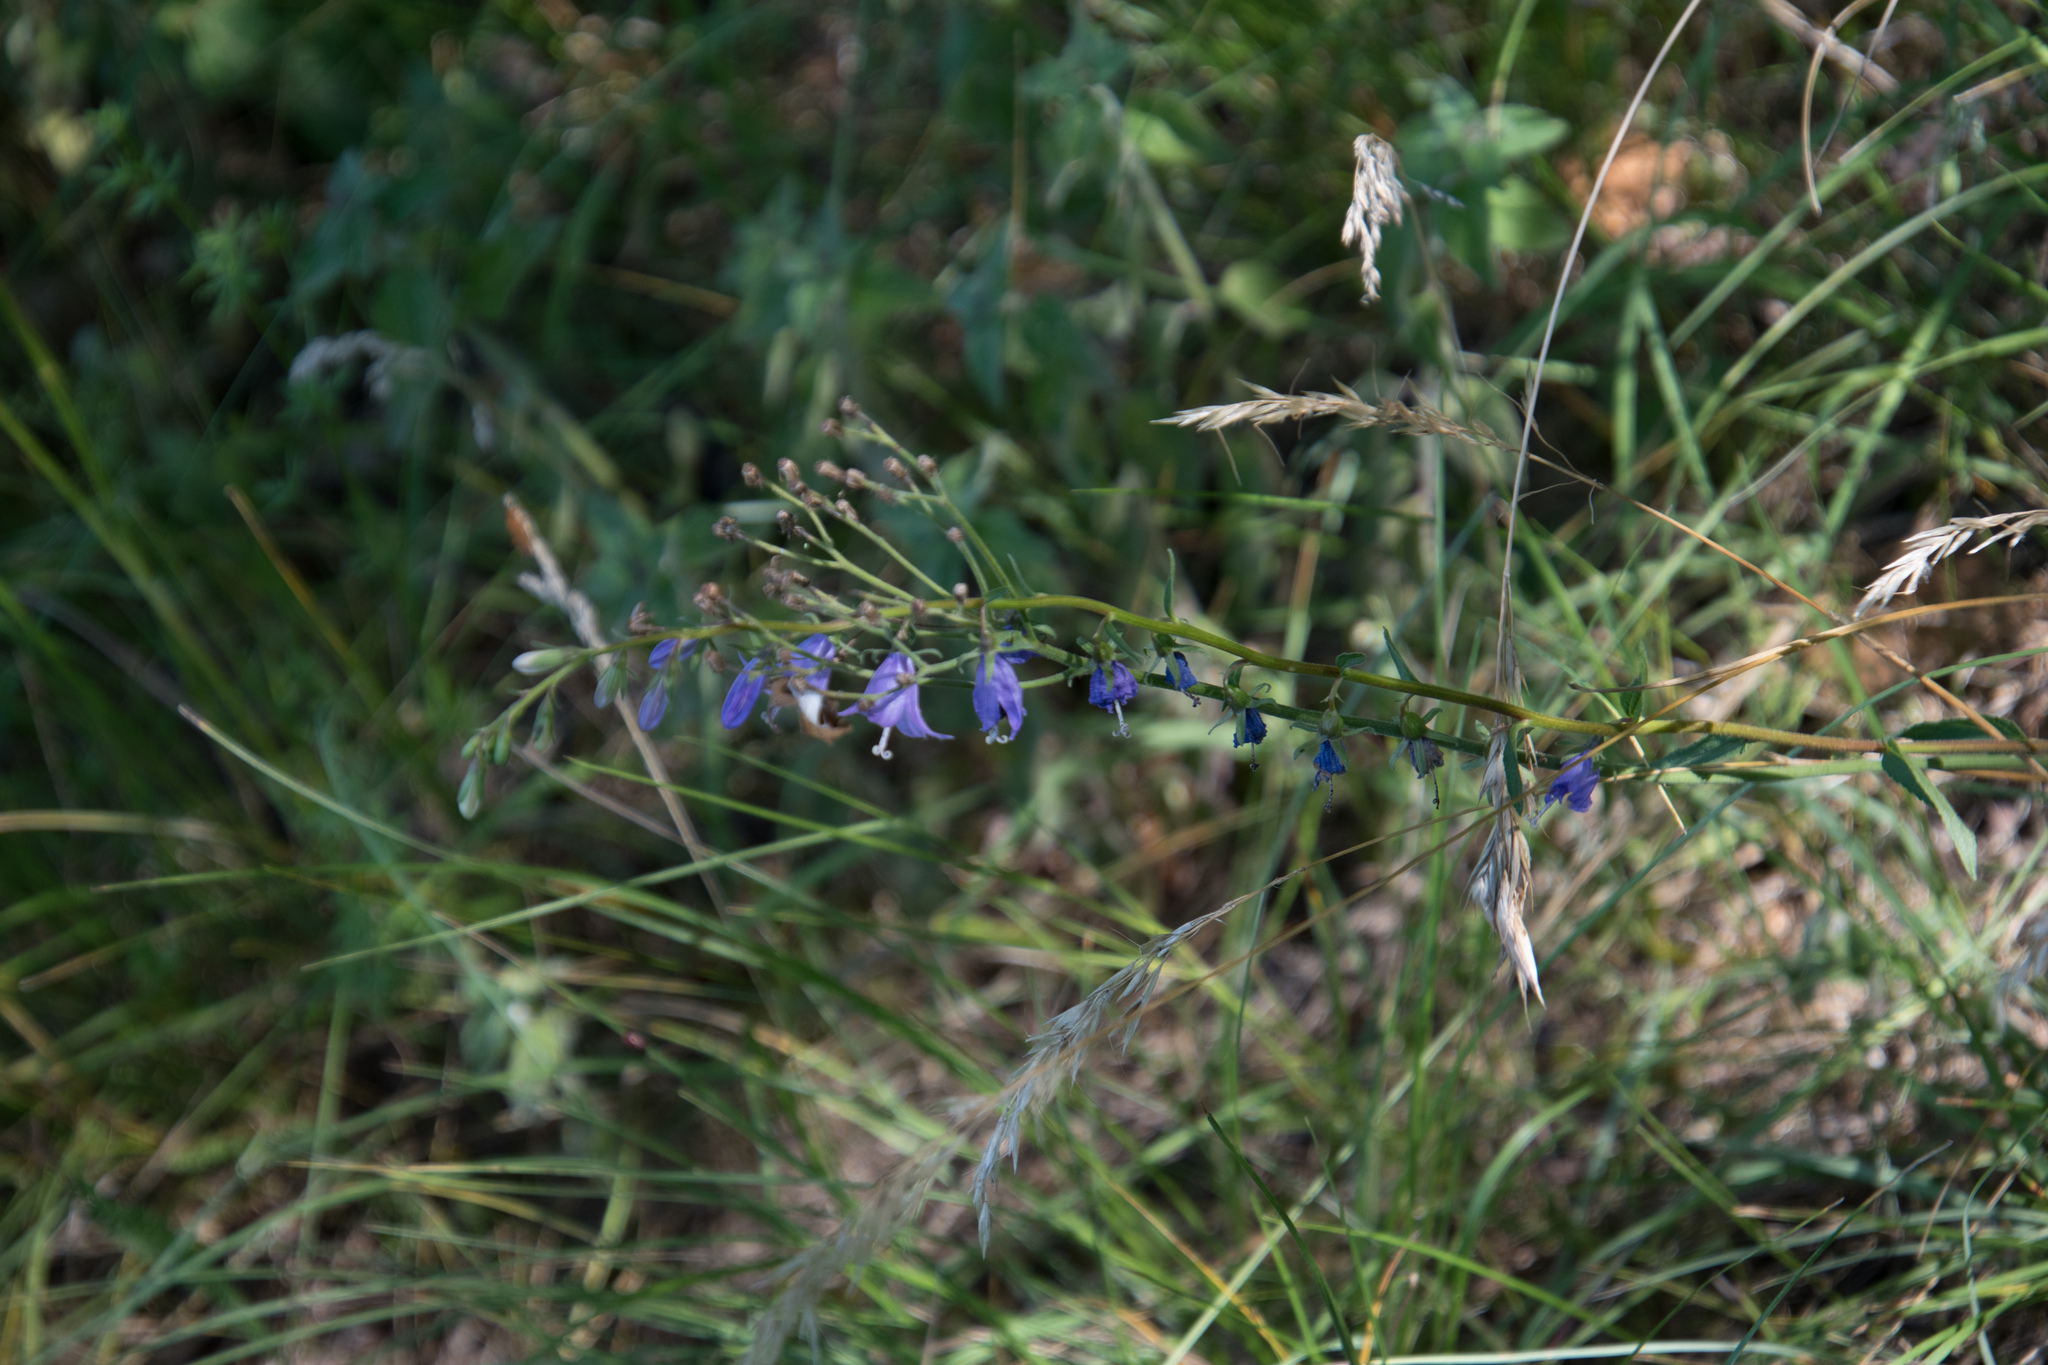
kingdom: Plantae
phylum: Tracheophyta
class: Magnoliopsida
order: Asterales
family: Campanulaceae
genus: Campanula
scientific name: Campanula rapunculoides
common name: Creeping bellflower
